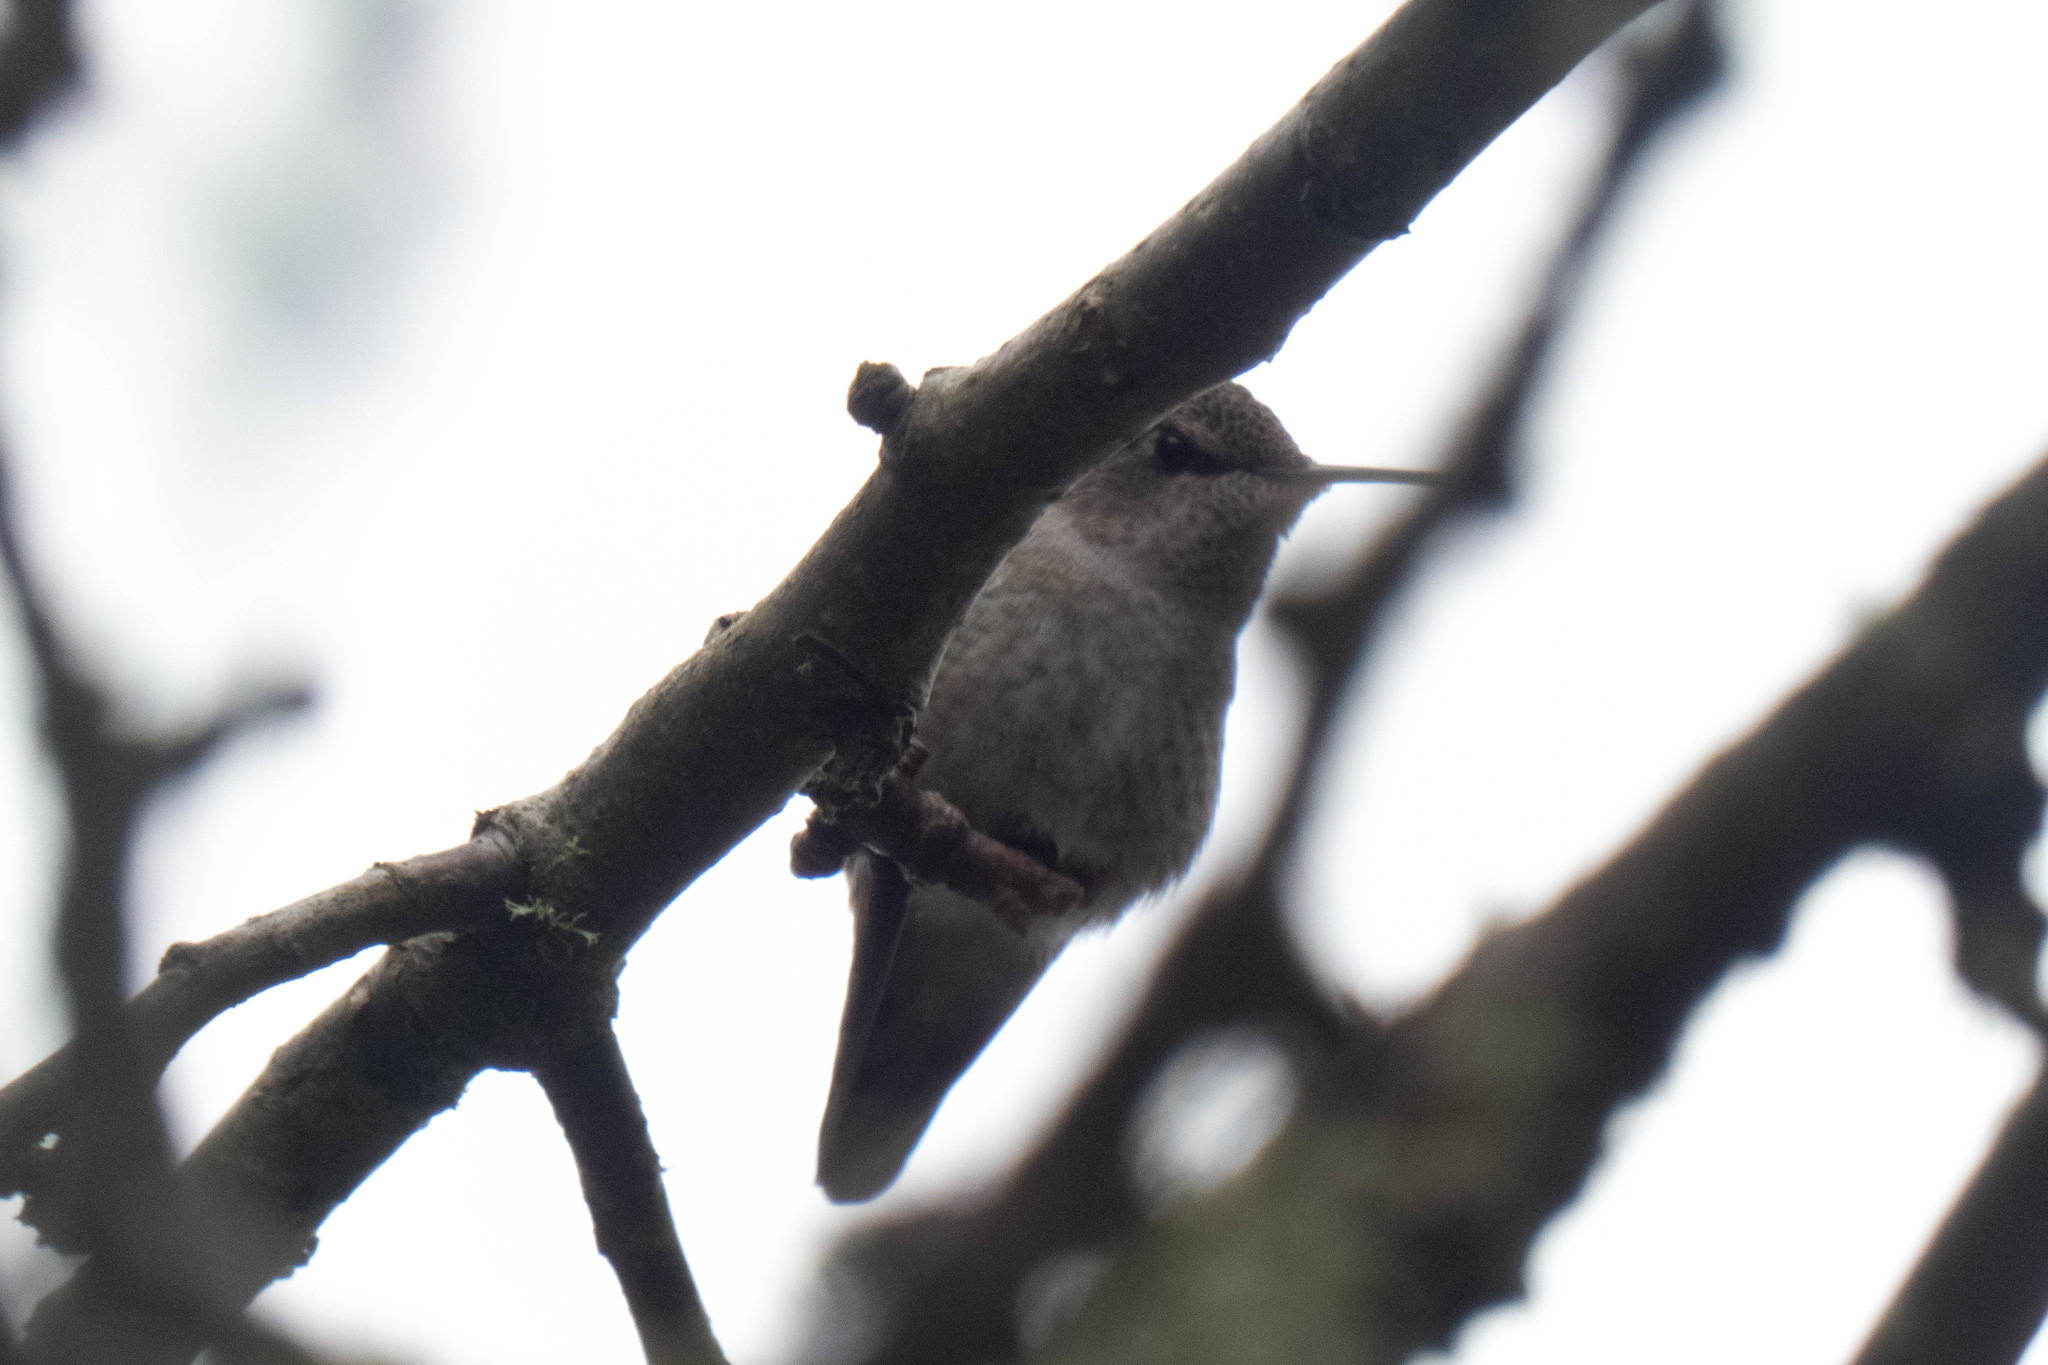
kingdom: Animalia
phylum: Chordata
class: Aves
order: Apodiformes
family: Trochilidae
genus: Calypte
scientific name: Calypte anna
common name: Anna's hummingbird
